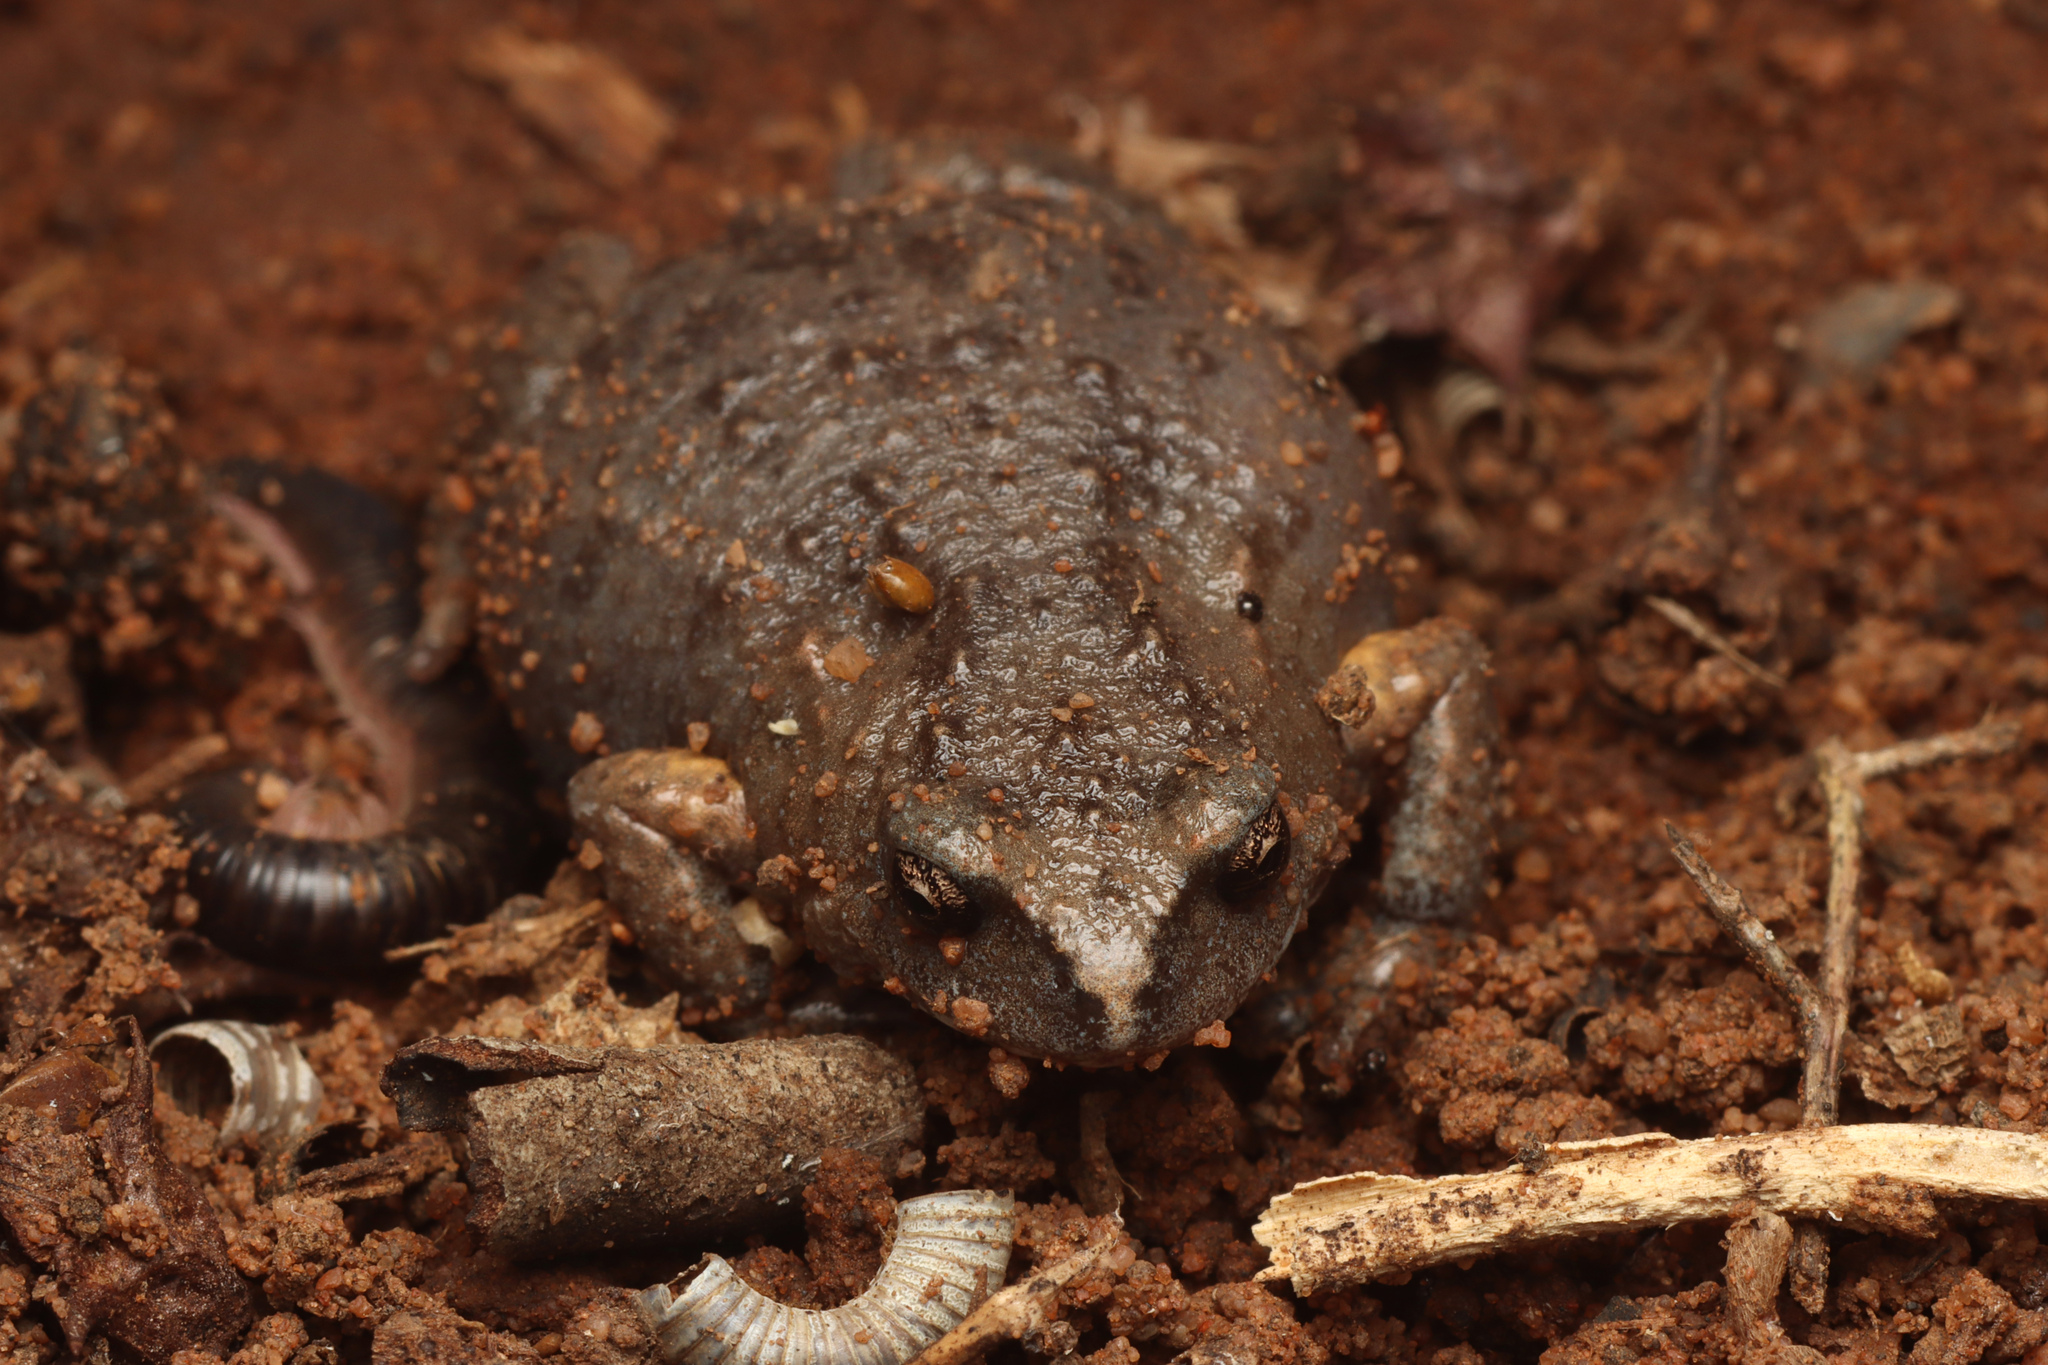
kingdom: Animalia
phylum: Chordata
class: Amphibia
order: Anura
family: Myobatrachidae
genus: Pseudophryne
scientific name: Pseudophryne bibronii
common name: Bibron’s toadlet
